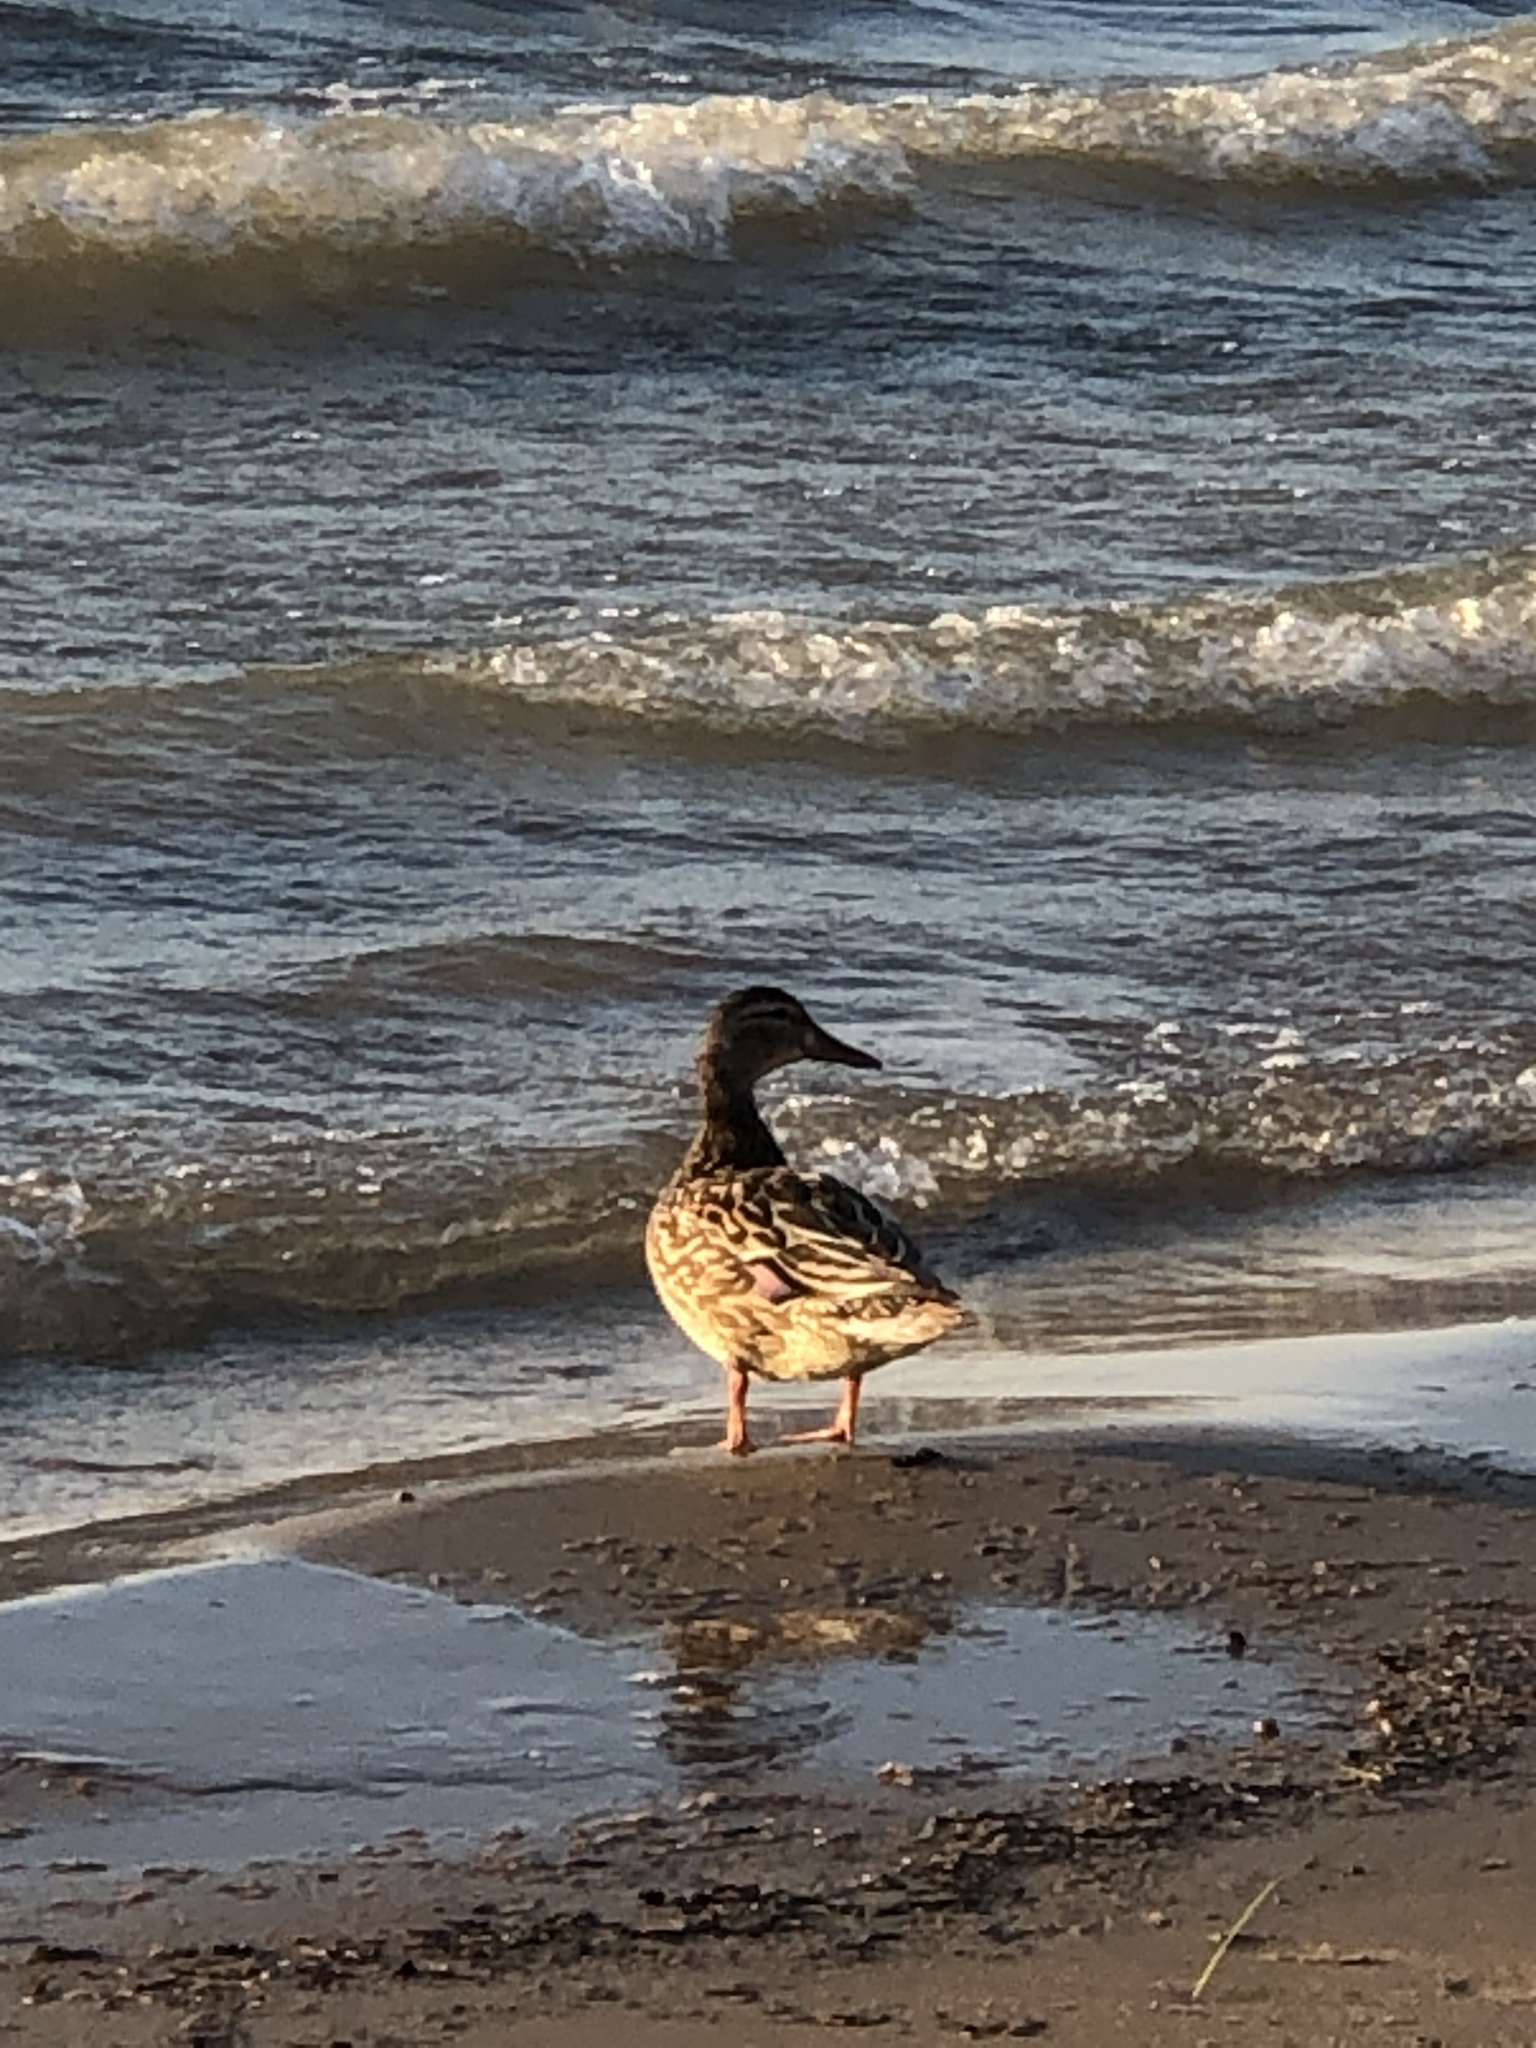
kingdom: Animalia
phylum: Chordata
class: Aves
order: Anseriformes
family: Anatidae
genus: Anas
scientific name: Anas platyrhynchos
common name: Mallard
